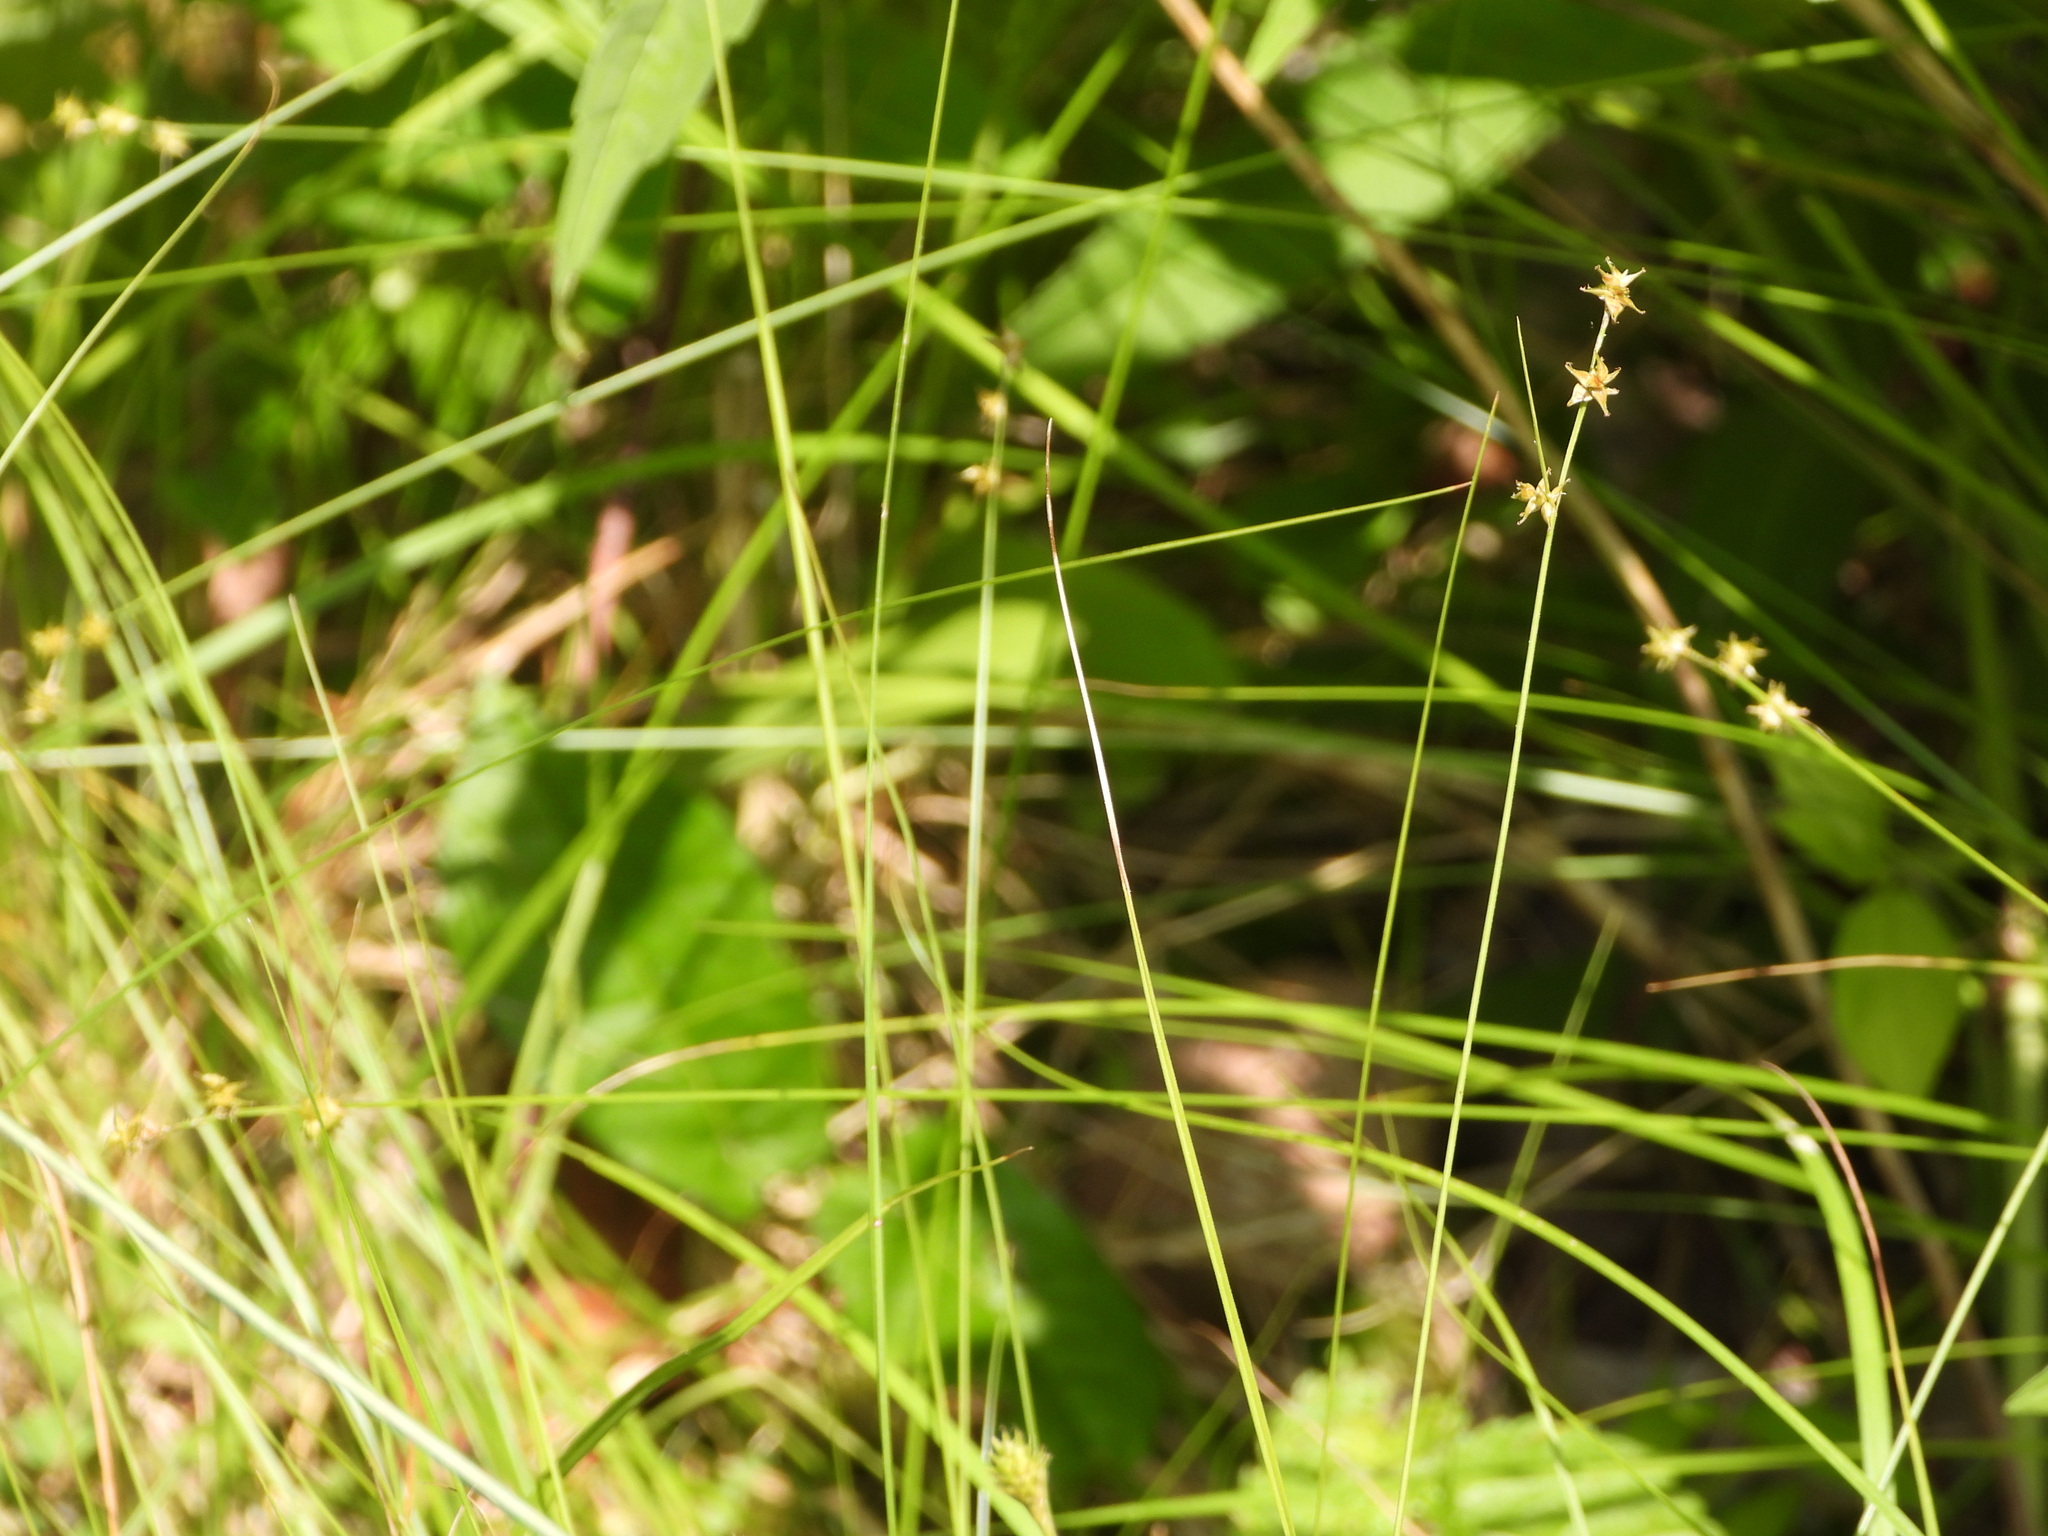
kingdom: Plantae
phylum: Tracheophyta
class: Liliopsida
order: Poales
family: Cyperaceae
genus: Carex
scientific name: Carex atlantica
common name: Atlantic sedge
